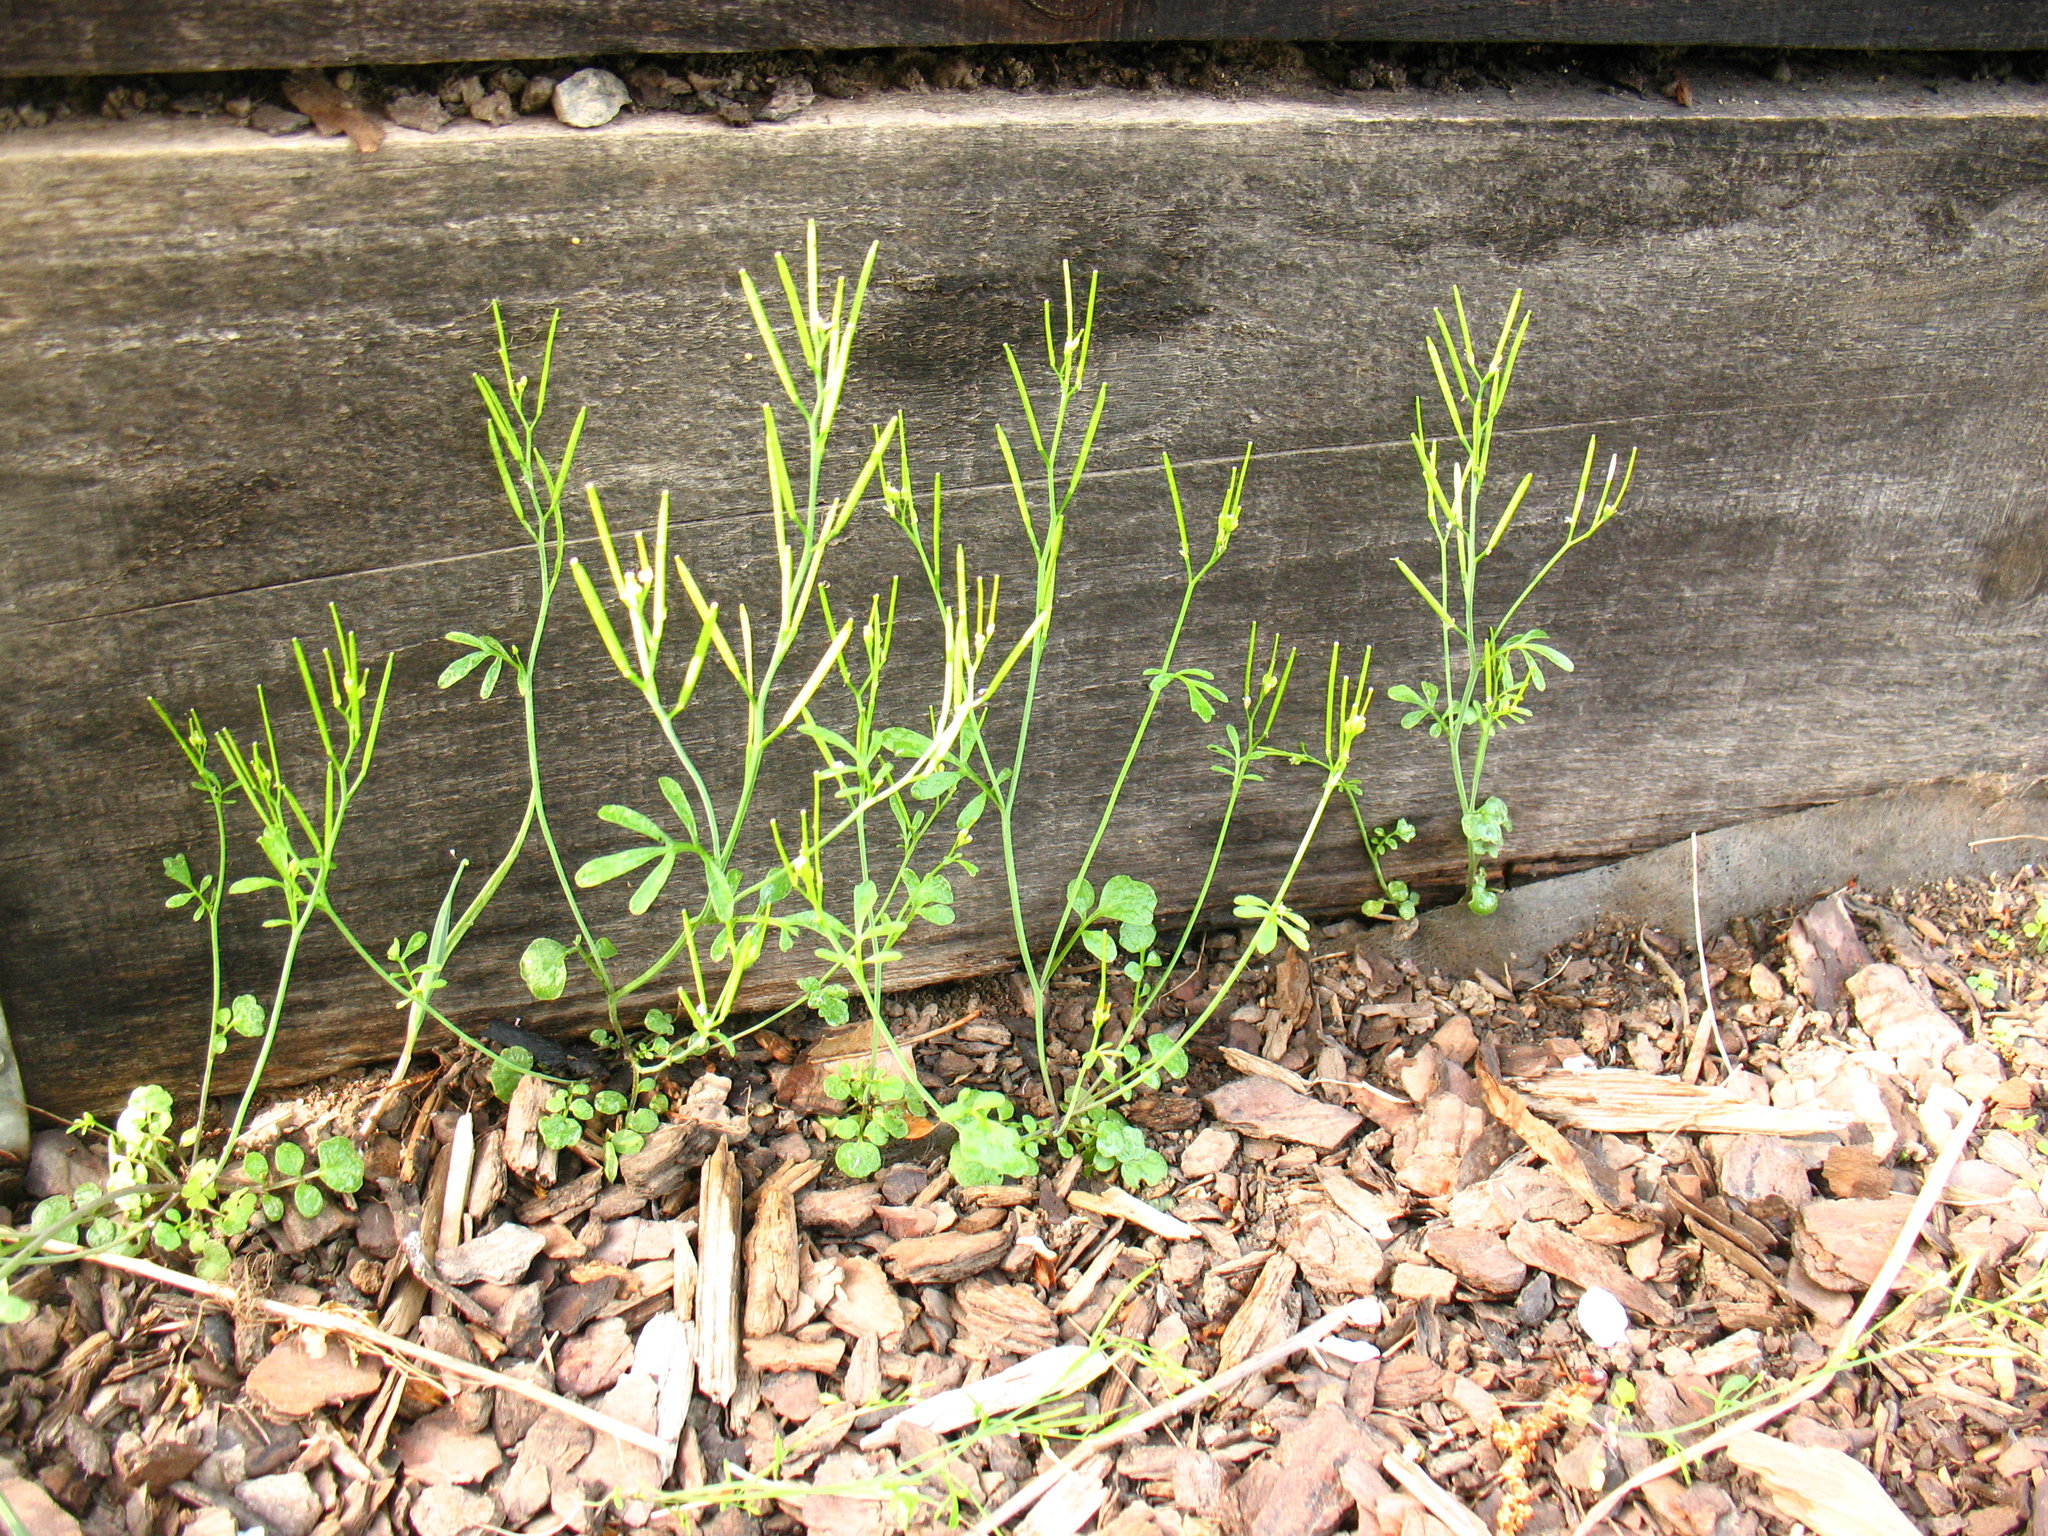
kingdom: Plantae
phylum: Tracheophyta
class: Magnoliopsida
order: Brassicales
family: Brassicaceae
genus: Cardamine
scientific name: Cardamine hirsuta
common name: Hairy bittercress
